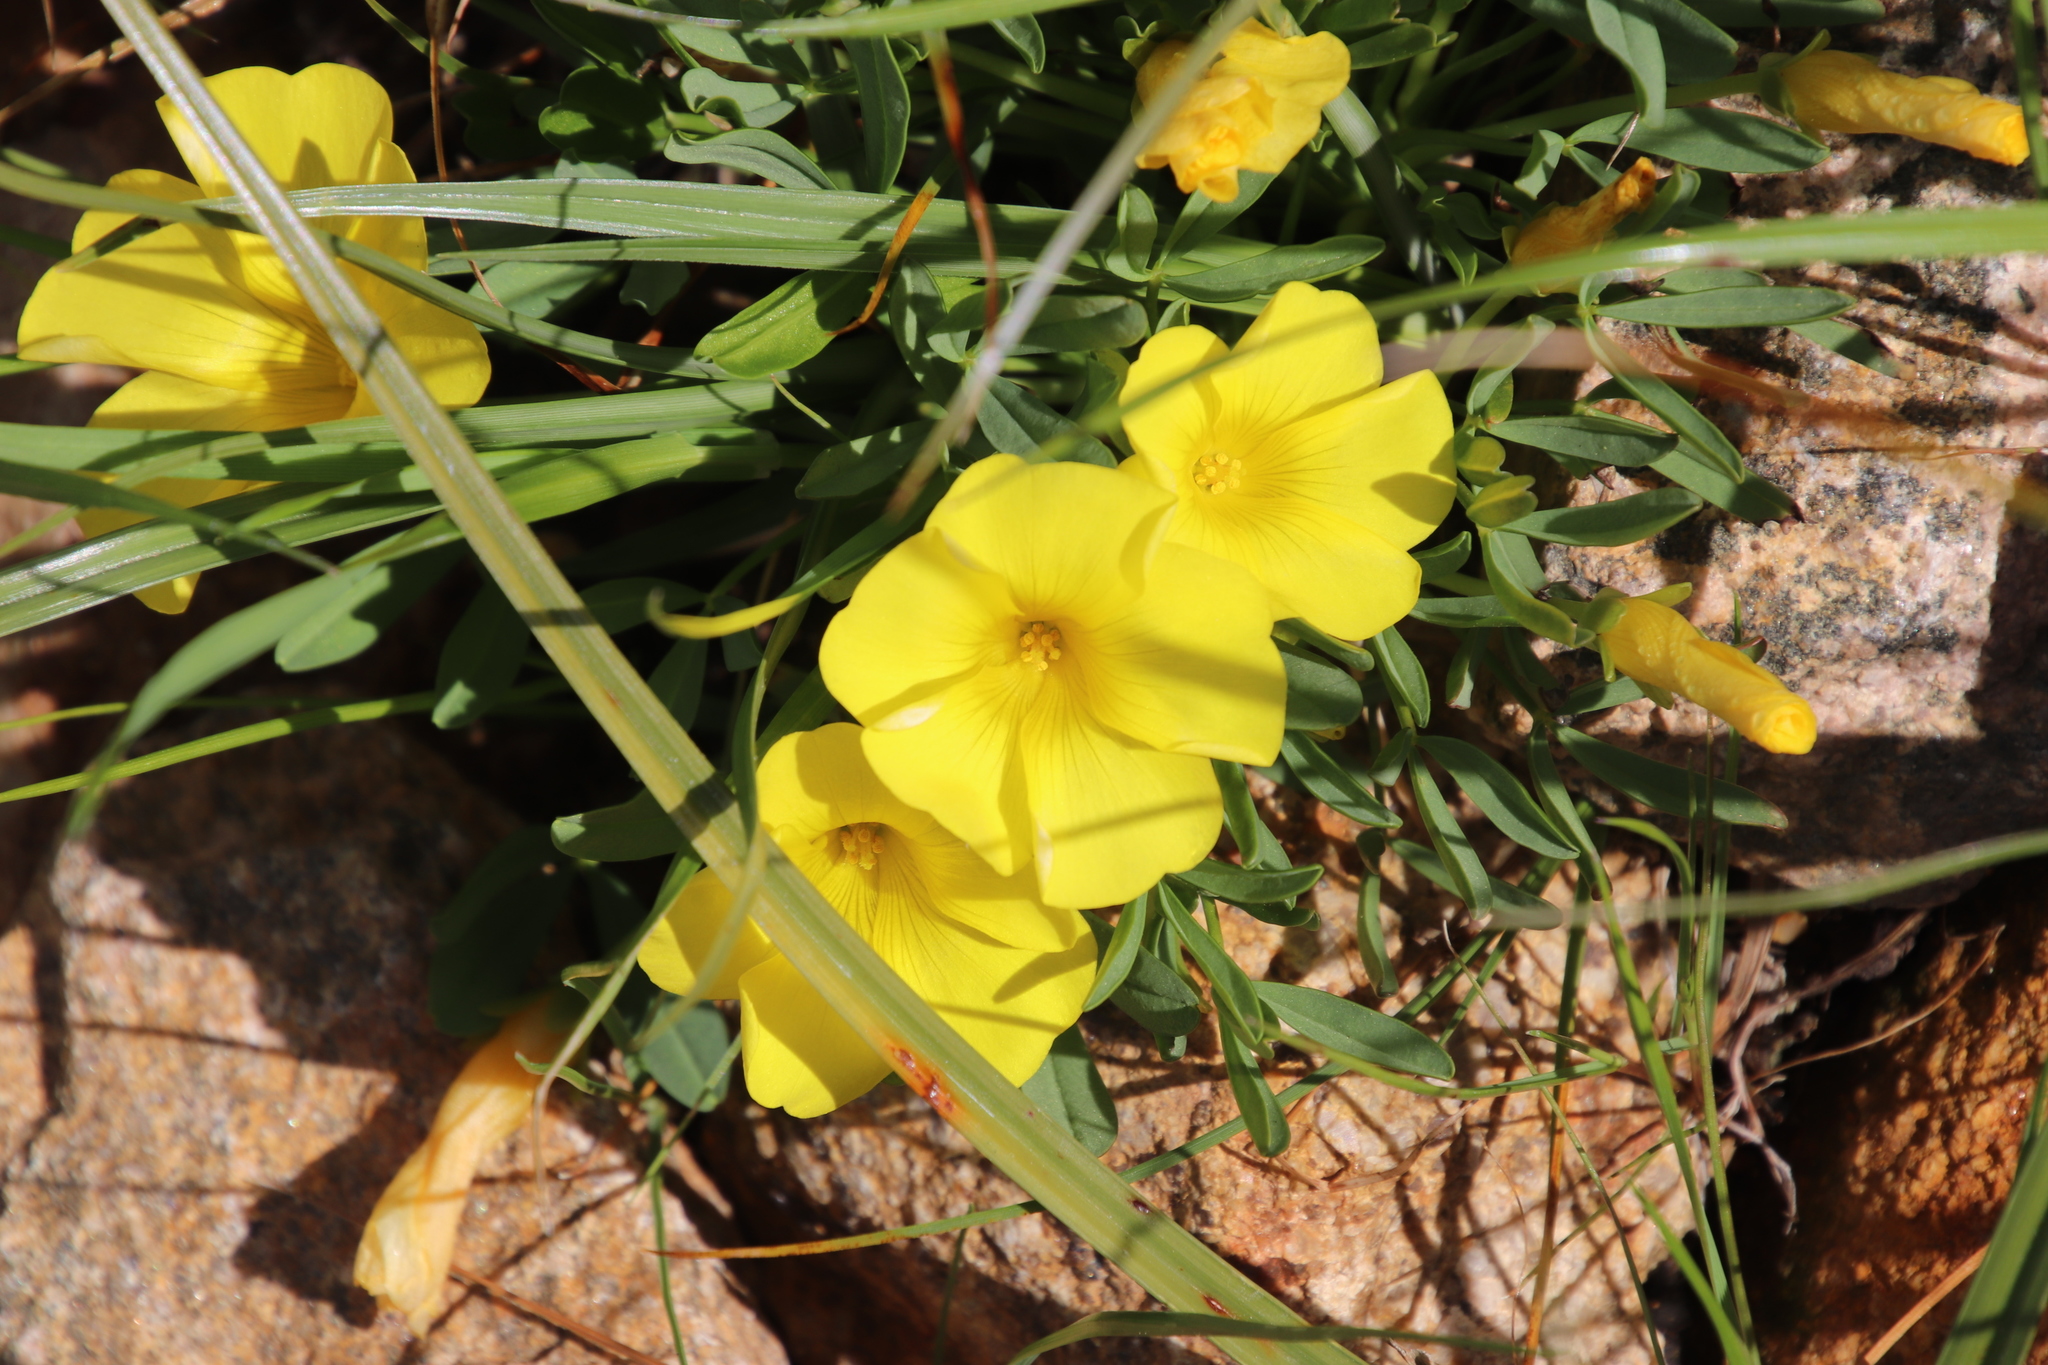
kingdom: Plantae
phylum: Tracheophyta
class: Magnoliopsida
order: Oxalidales
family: Oxalidaceae
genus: Oxalis
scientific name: Oxalis namaquana
